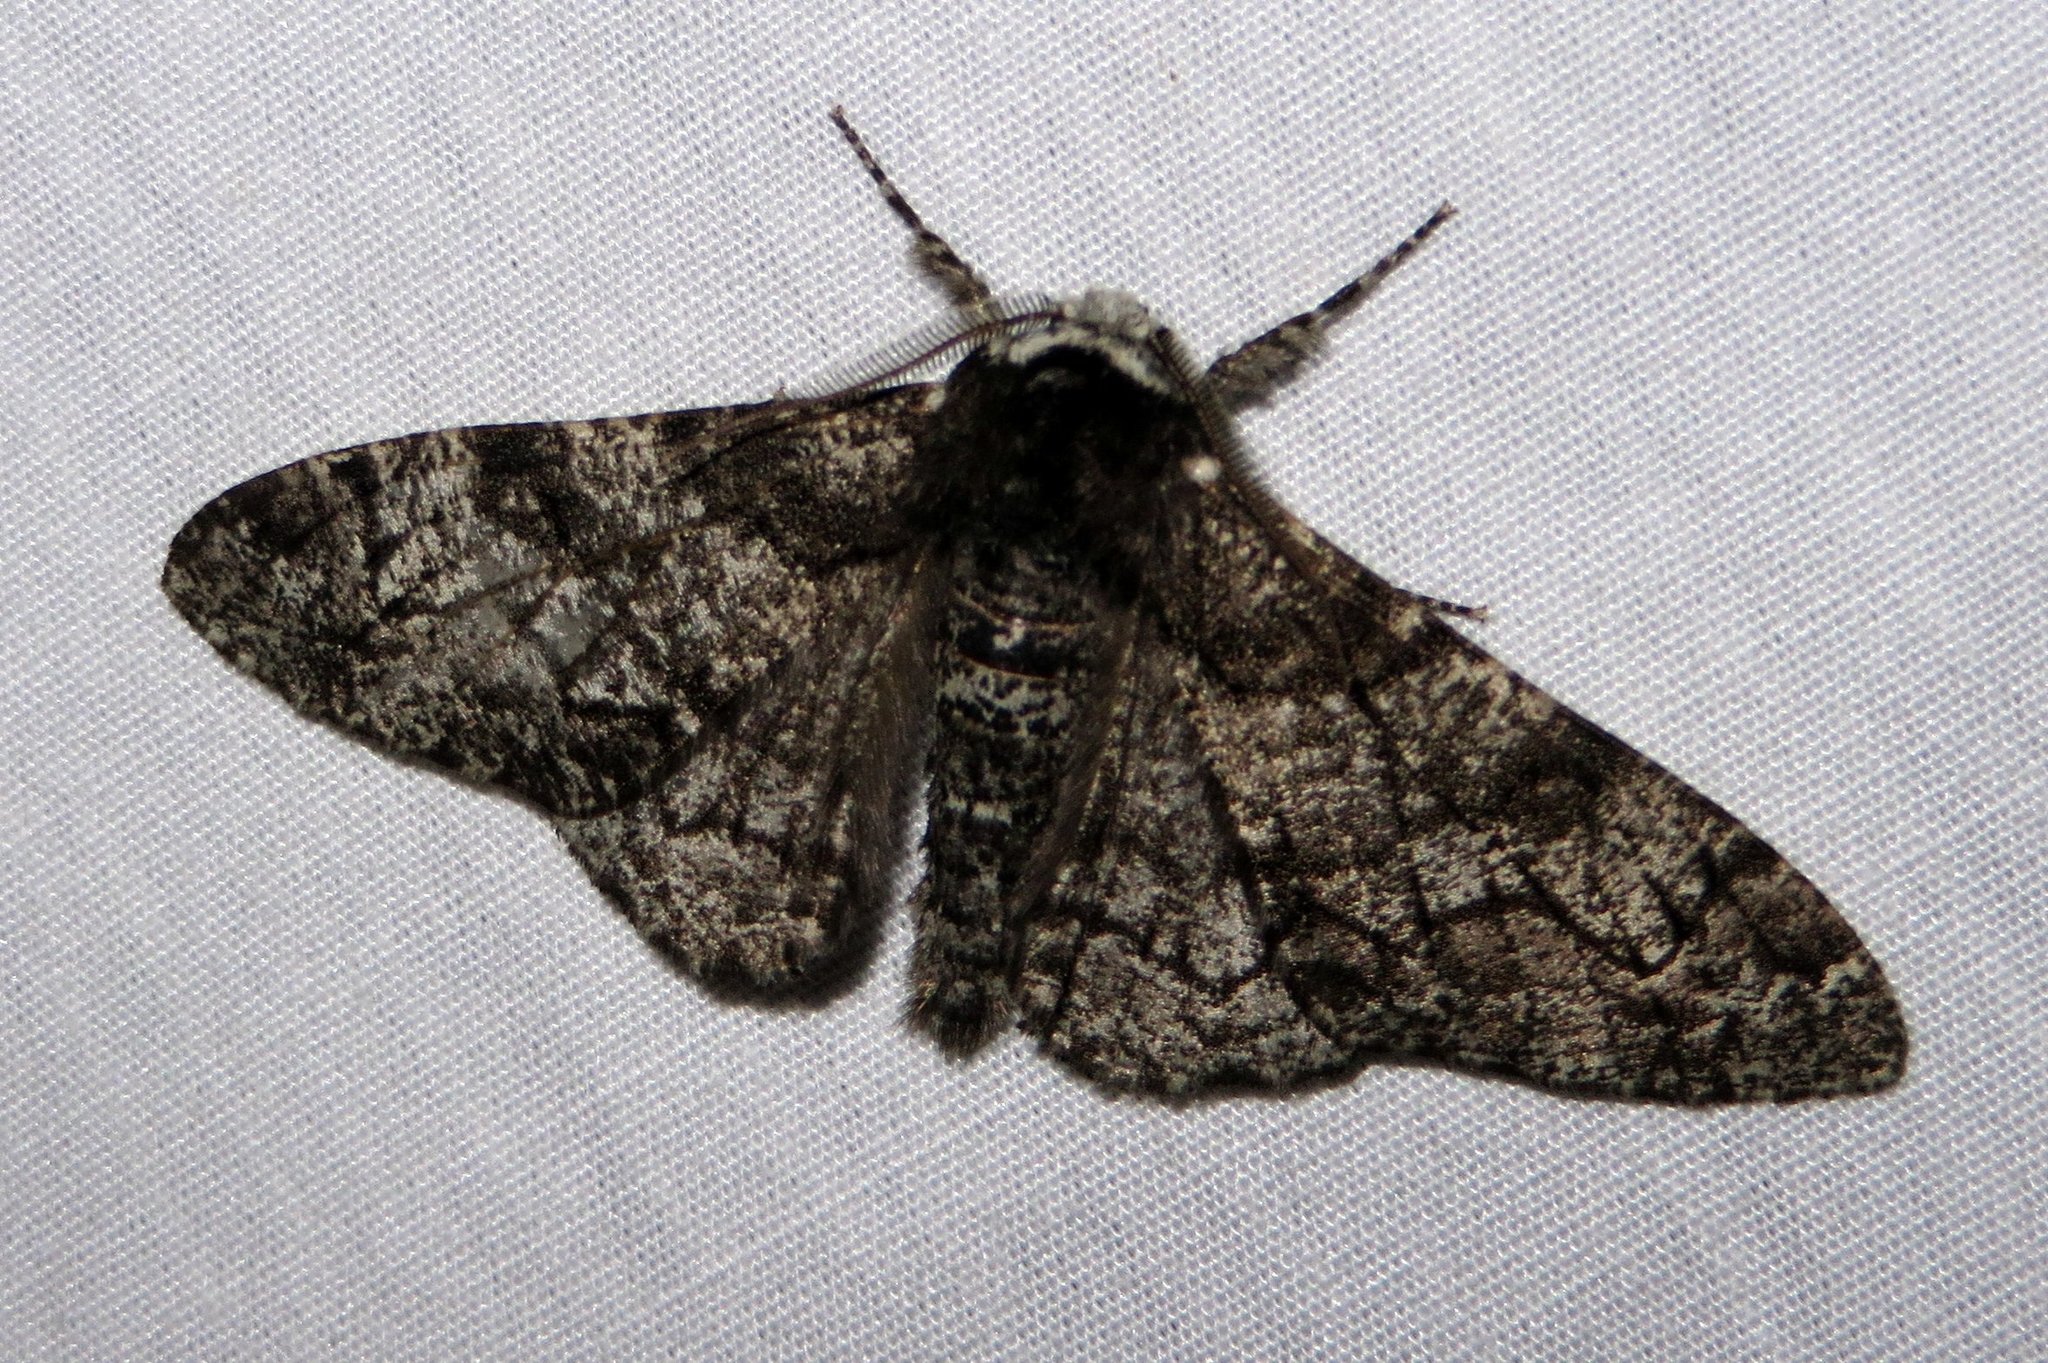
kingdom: Animalia
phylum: Arthropoda
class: Insecta
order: Lepidoptera
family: Geometridae
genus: Biston
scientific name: Biston betularia
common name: Peppered moth
